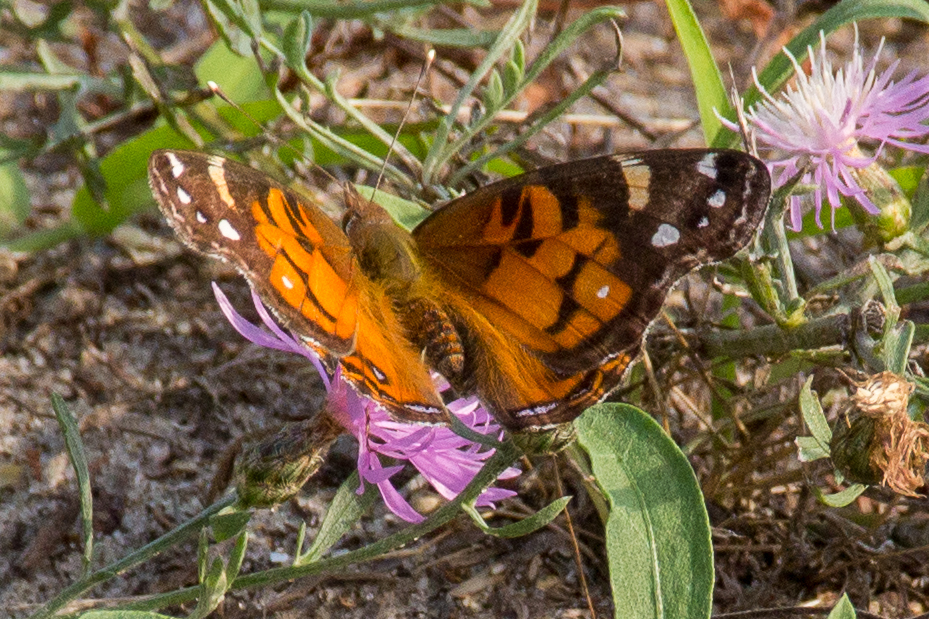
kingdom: Animalia
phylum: Arthropoda
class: Insecta
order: Lepidoptera
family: Nymphalidae
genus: Vanessa
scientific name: Vanessa virginiensis
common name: American lady
